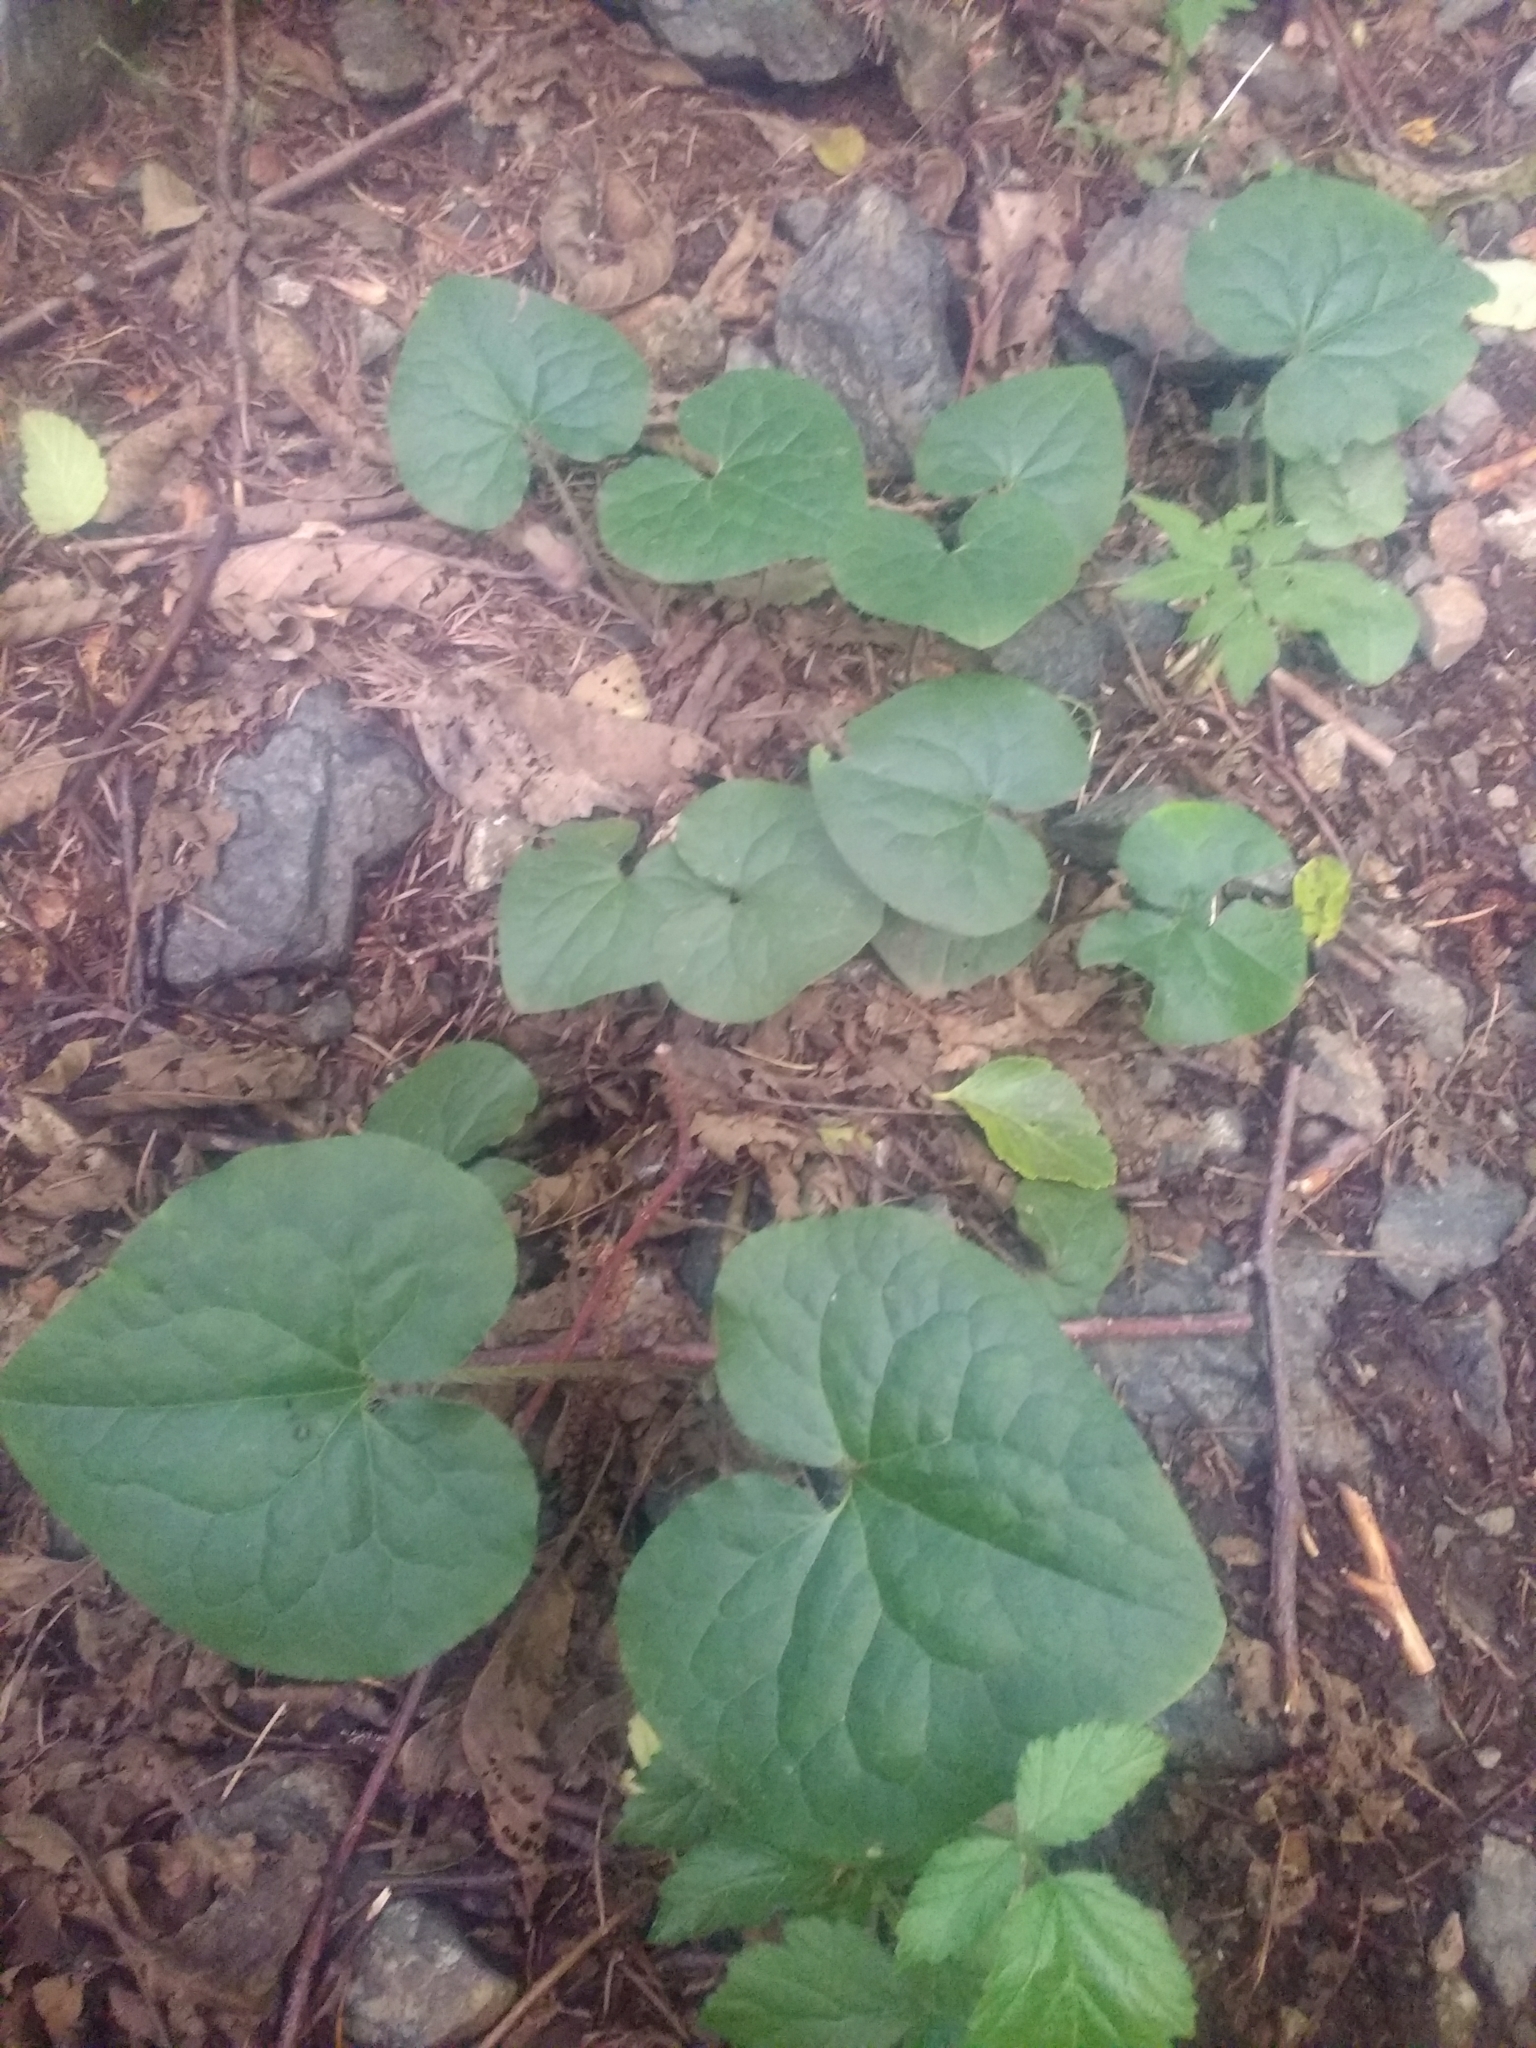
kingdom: Plantae
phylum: Tracheophyta
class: Magnoliopsida
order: Piperales
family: Aristolochiaceae
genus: Asarum
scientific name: Asarum caudatum
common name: Wild ginger
